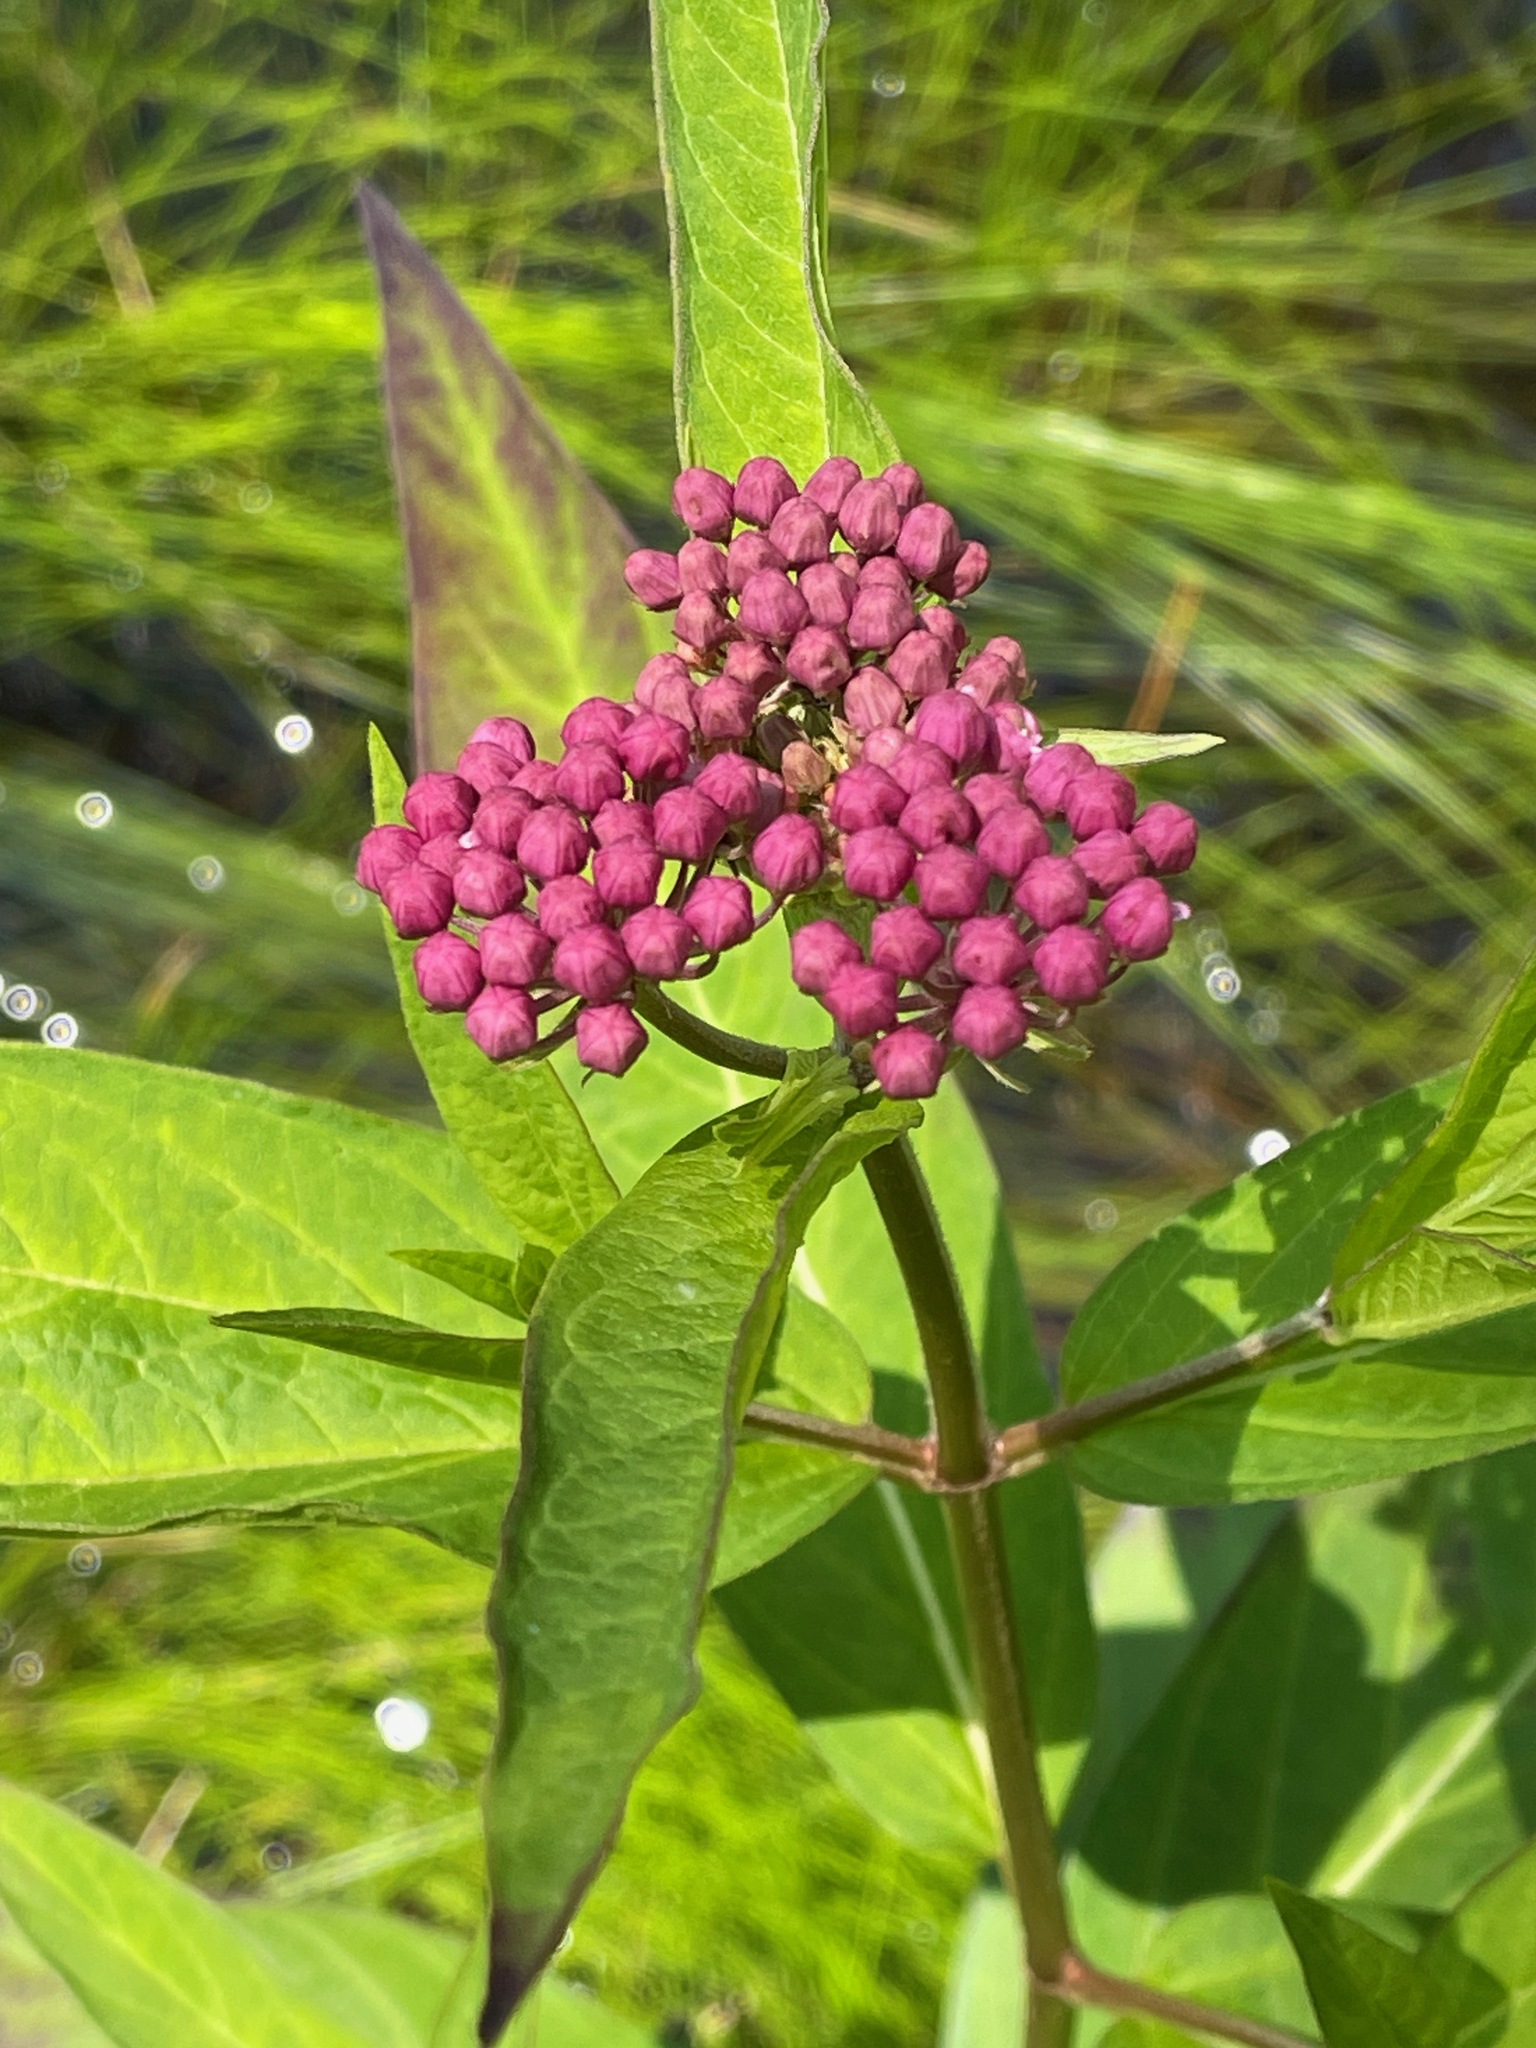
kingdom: Plantae
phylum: Tracheophyta
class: Magnoliopsida
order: Gentianales
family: Apocynaceae
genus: Asclepias
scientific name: Asclepias incarnata
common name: Swamp milkweed
